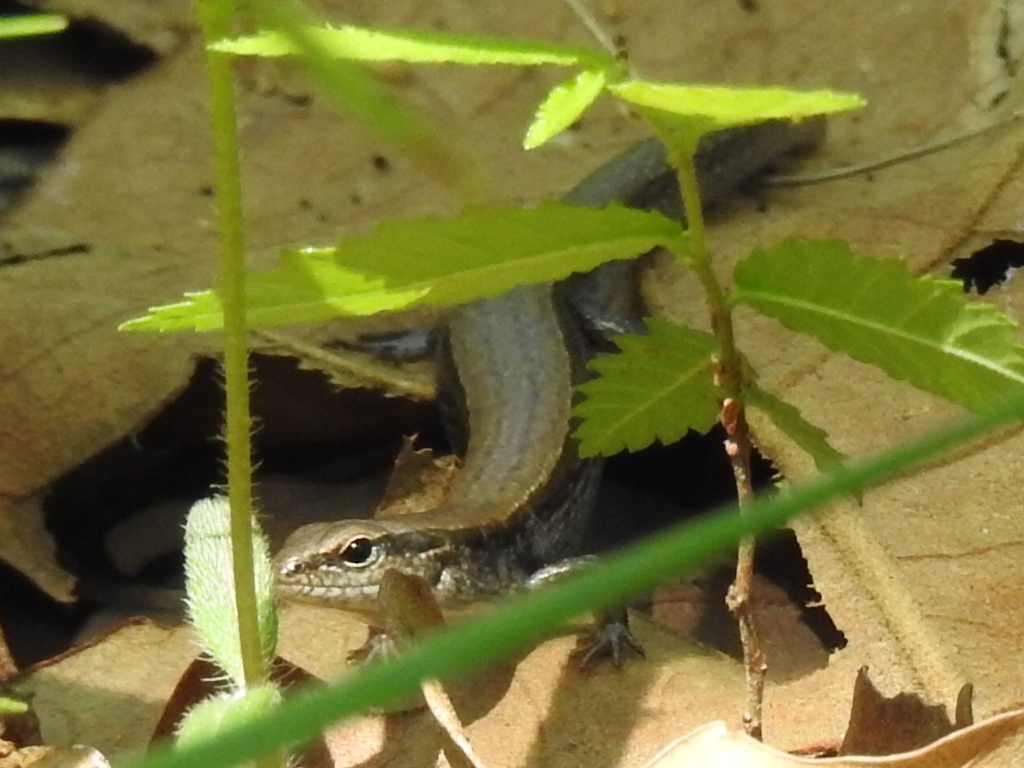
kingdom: Animalia
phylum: Chordata
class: Squamata
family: Scincidae
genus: Scincella
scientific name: Scincella lateralis
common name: Ground skink
